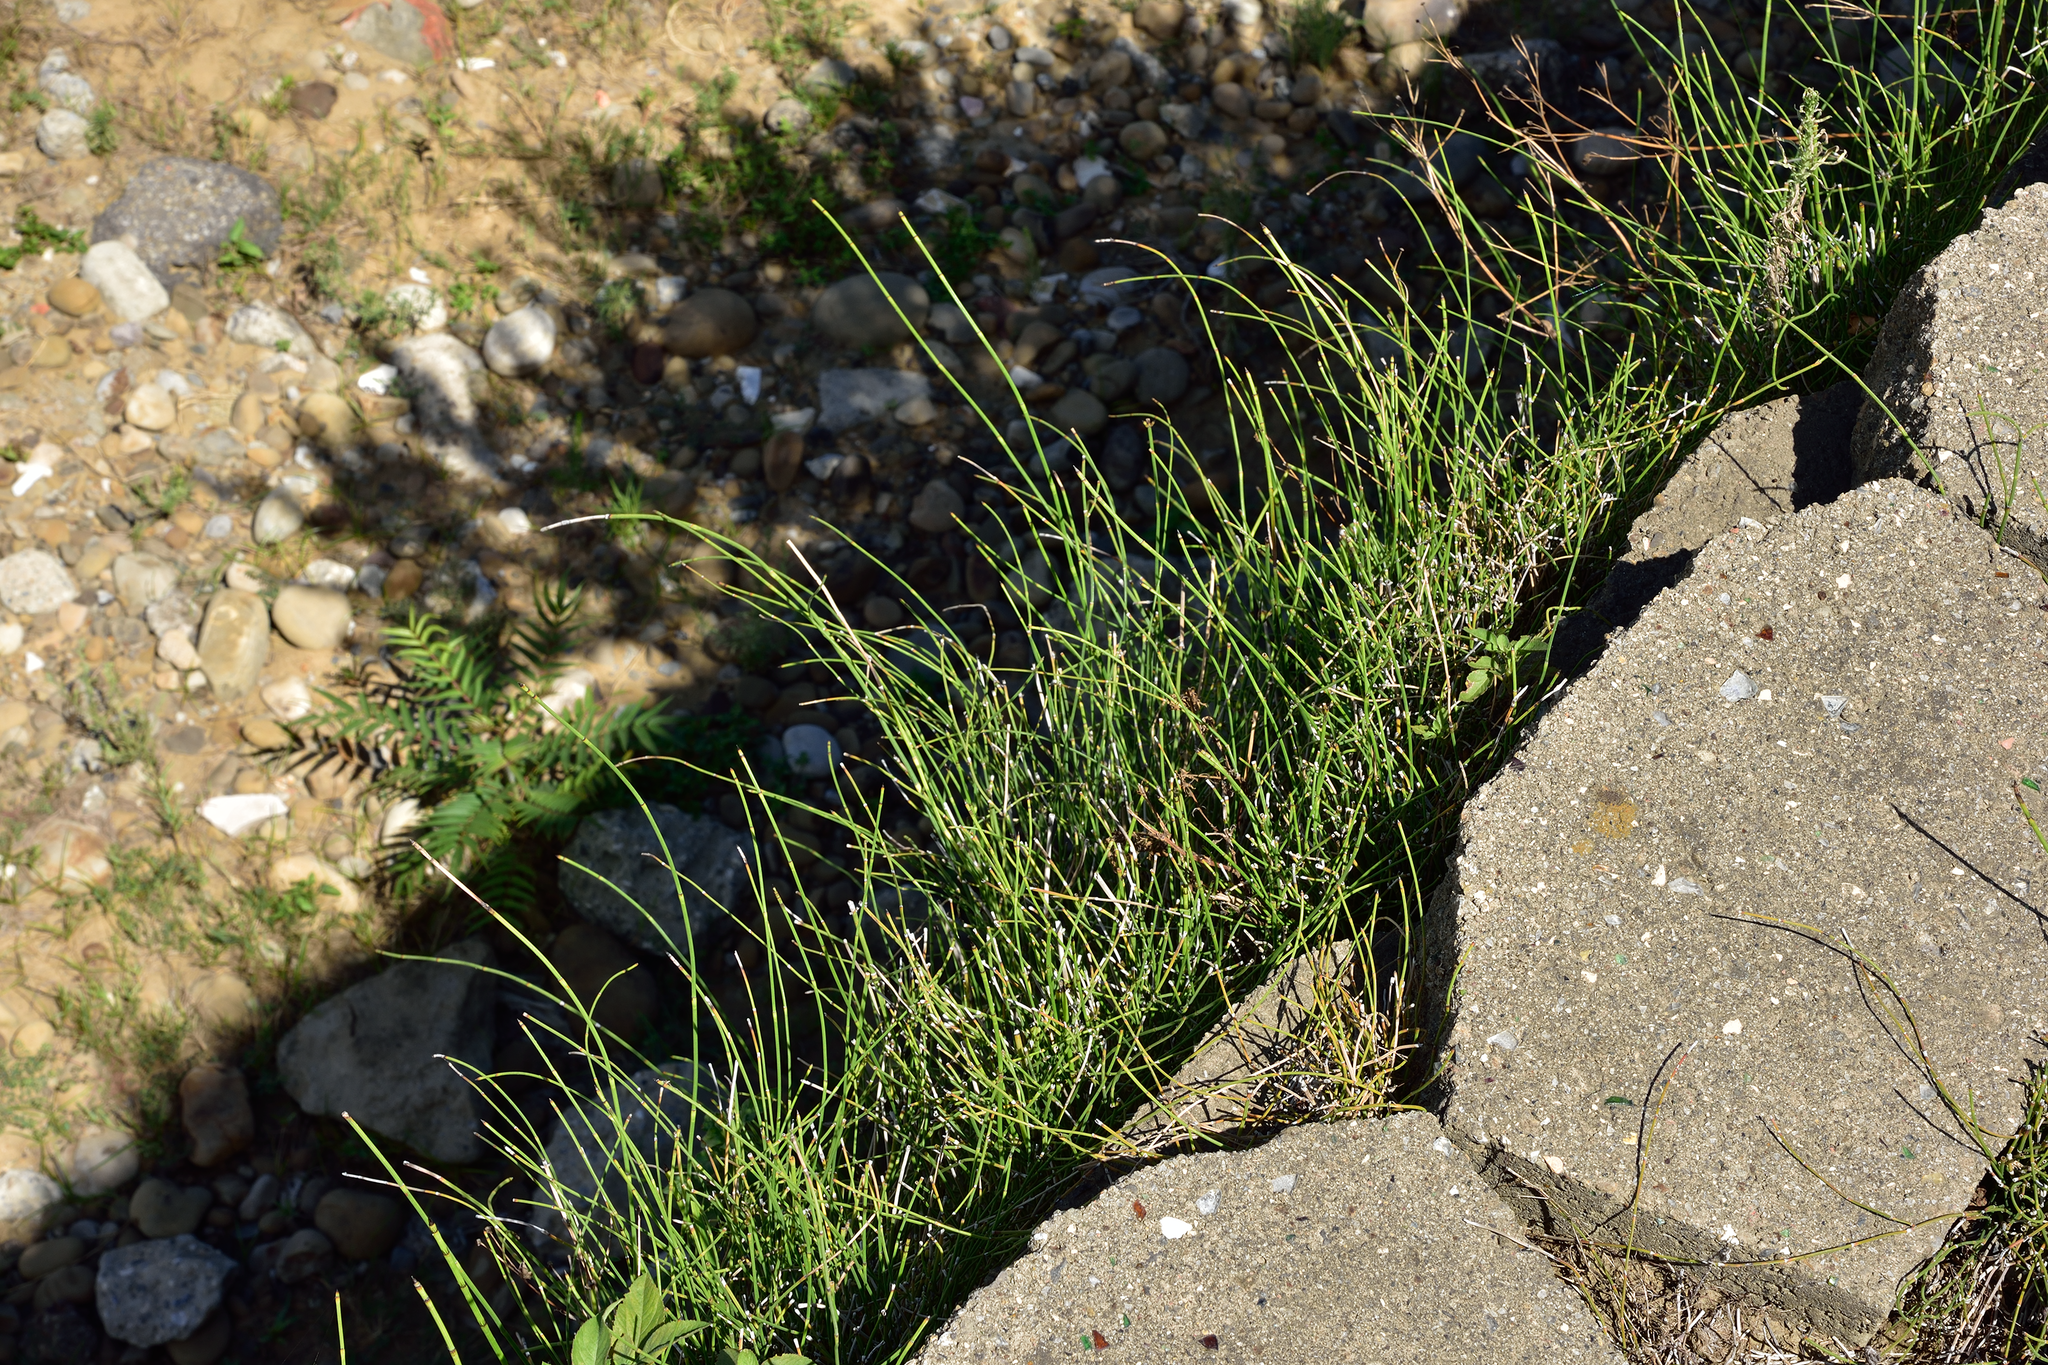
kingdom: Plantae
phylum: Tracheophyta
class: Polypodiopsida
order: Equisetales
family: Equisetaceae
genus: Equisetum
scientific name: Equisetum ramosissimum
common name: Branched horsetail
